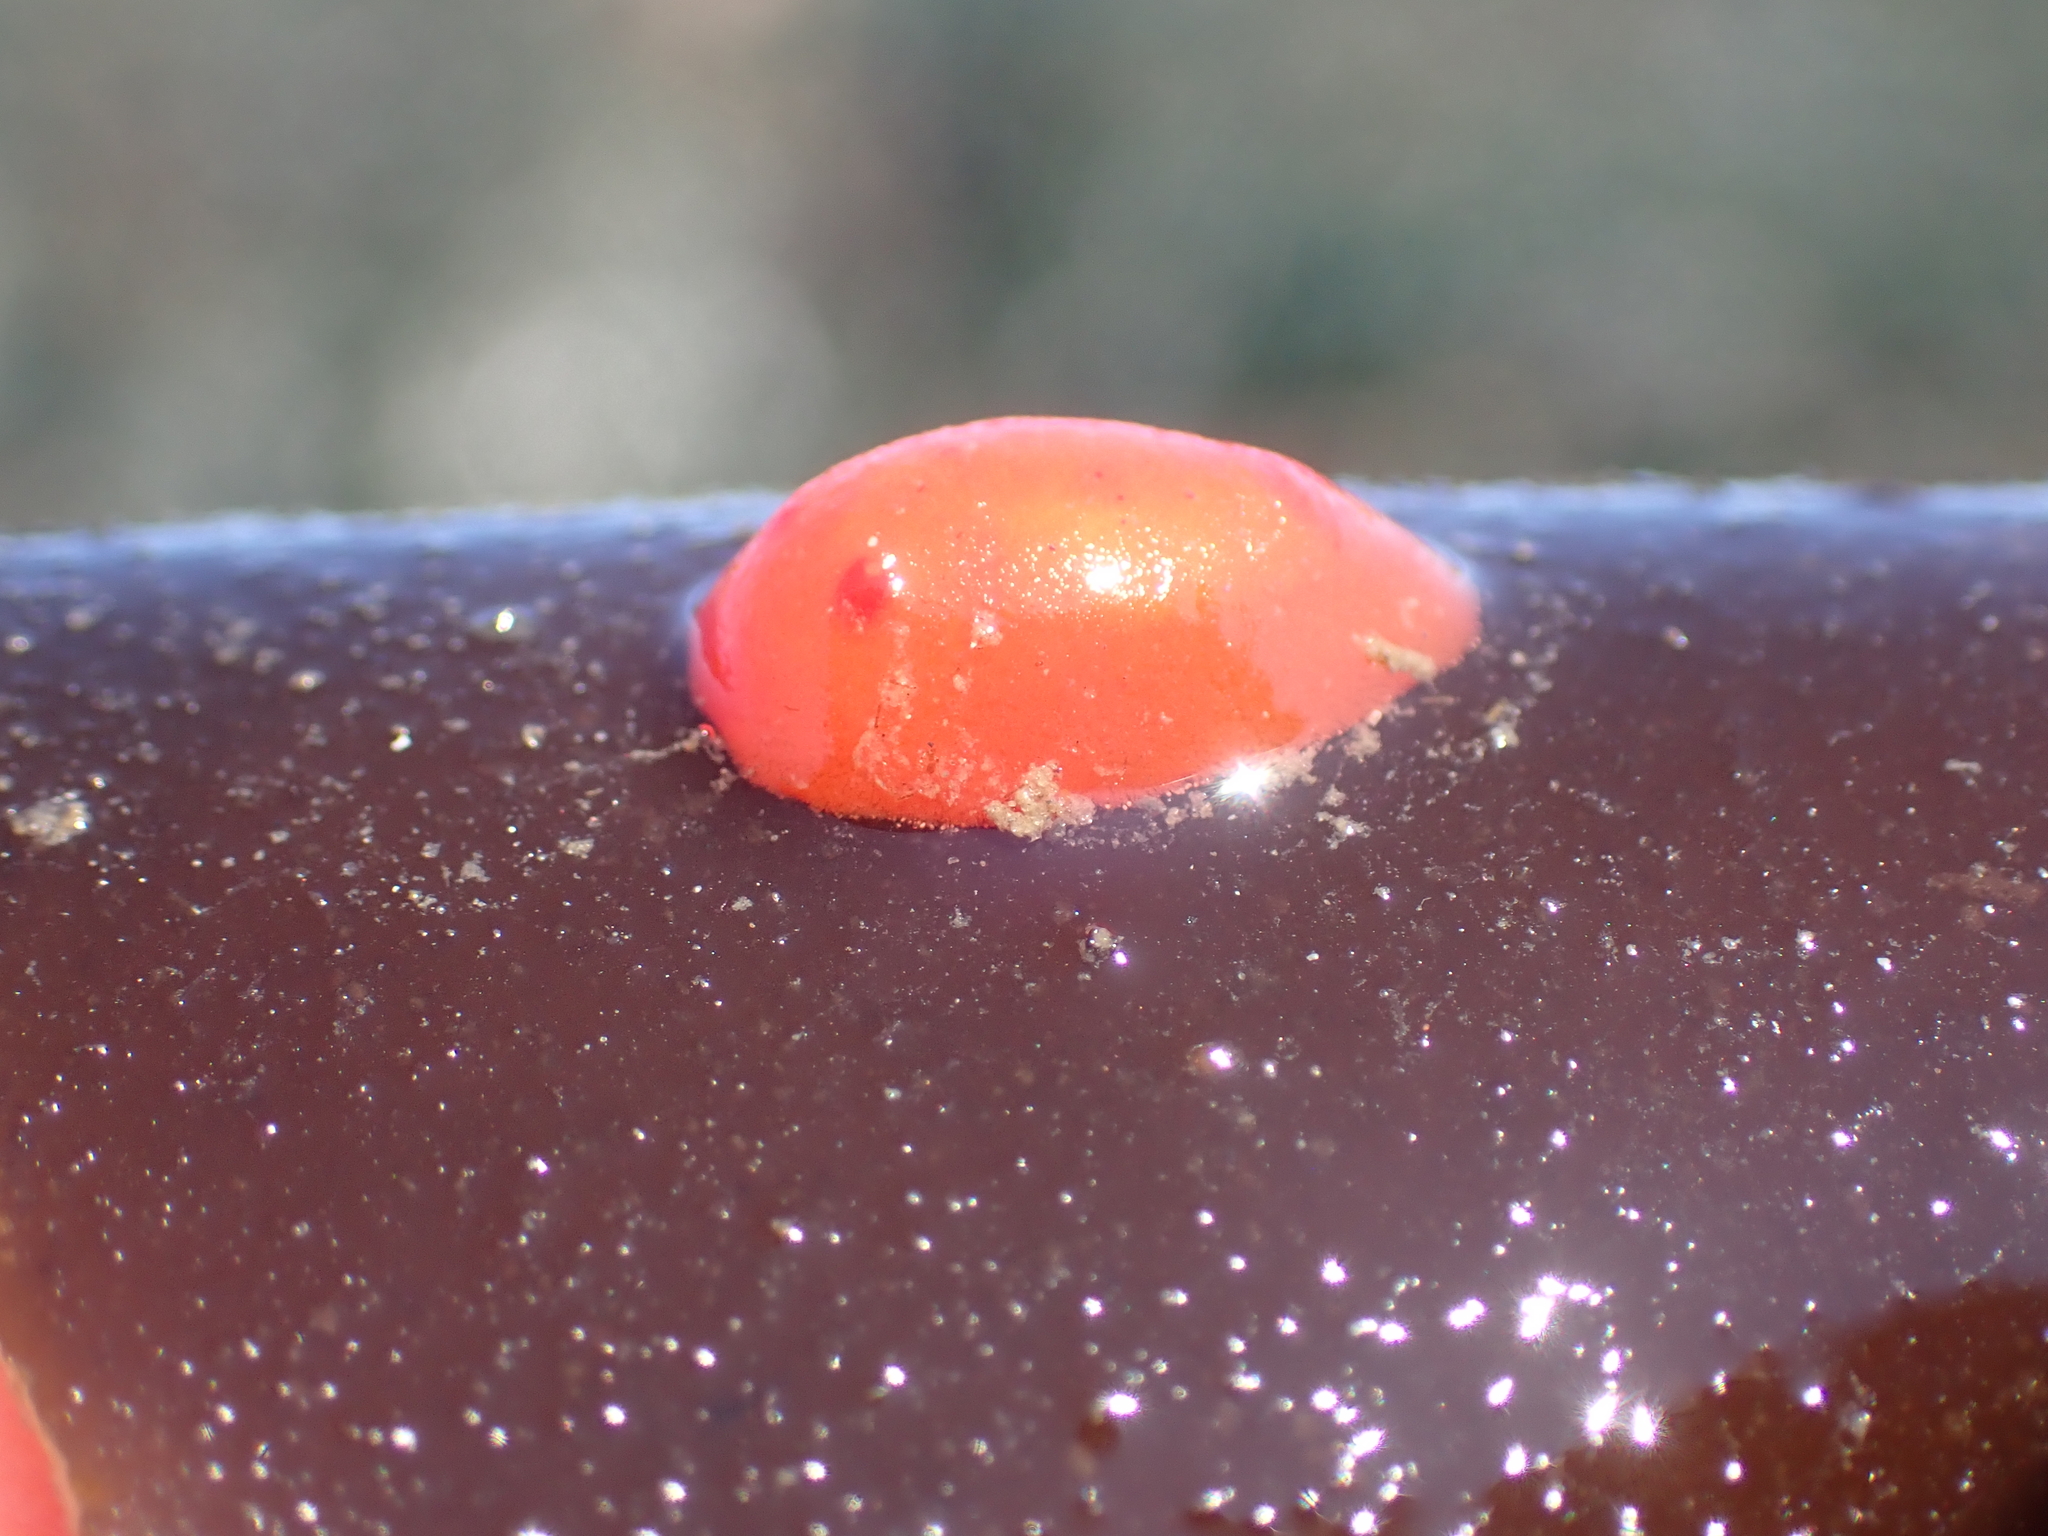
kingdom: Animalia
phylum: Mollusca
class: Gastropoda
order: Nudibranchia
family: Discodorididae
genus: Rostanga
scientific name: Rostanga pulchra
